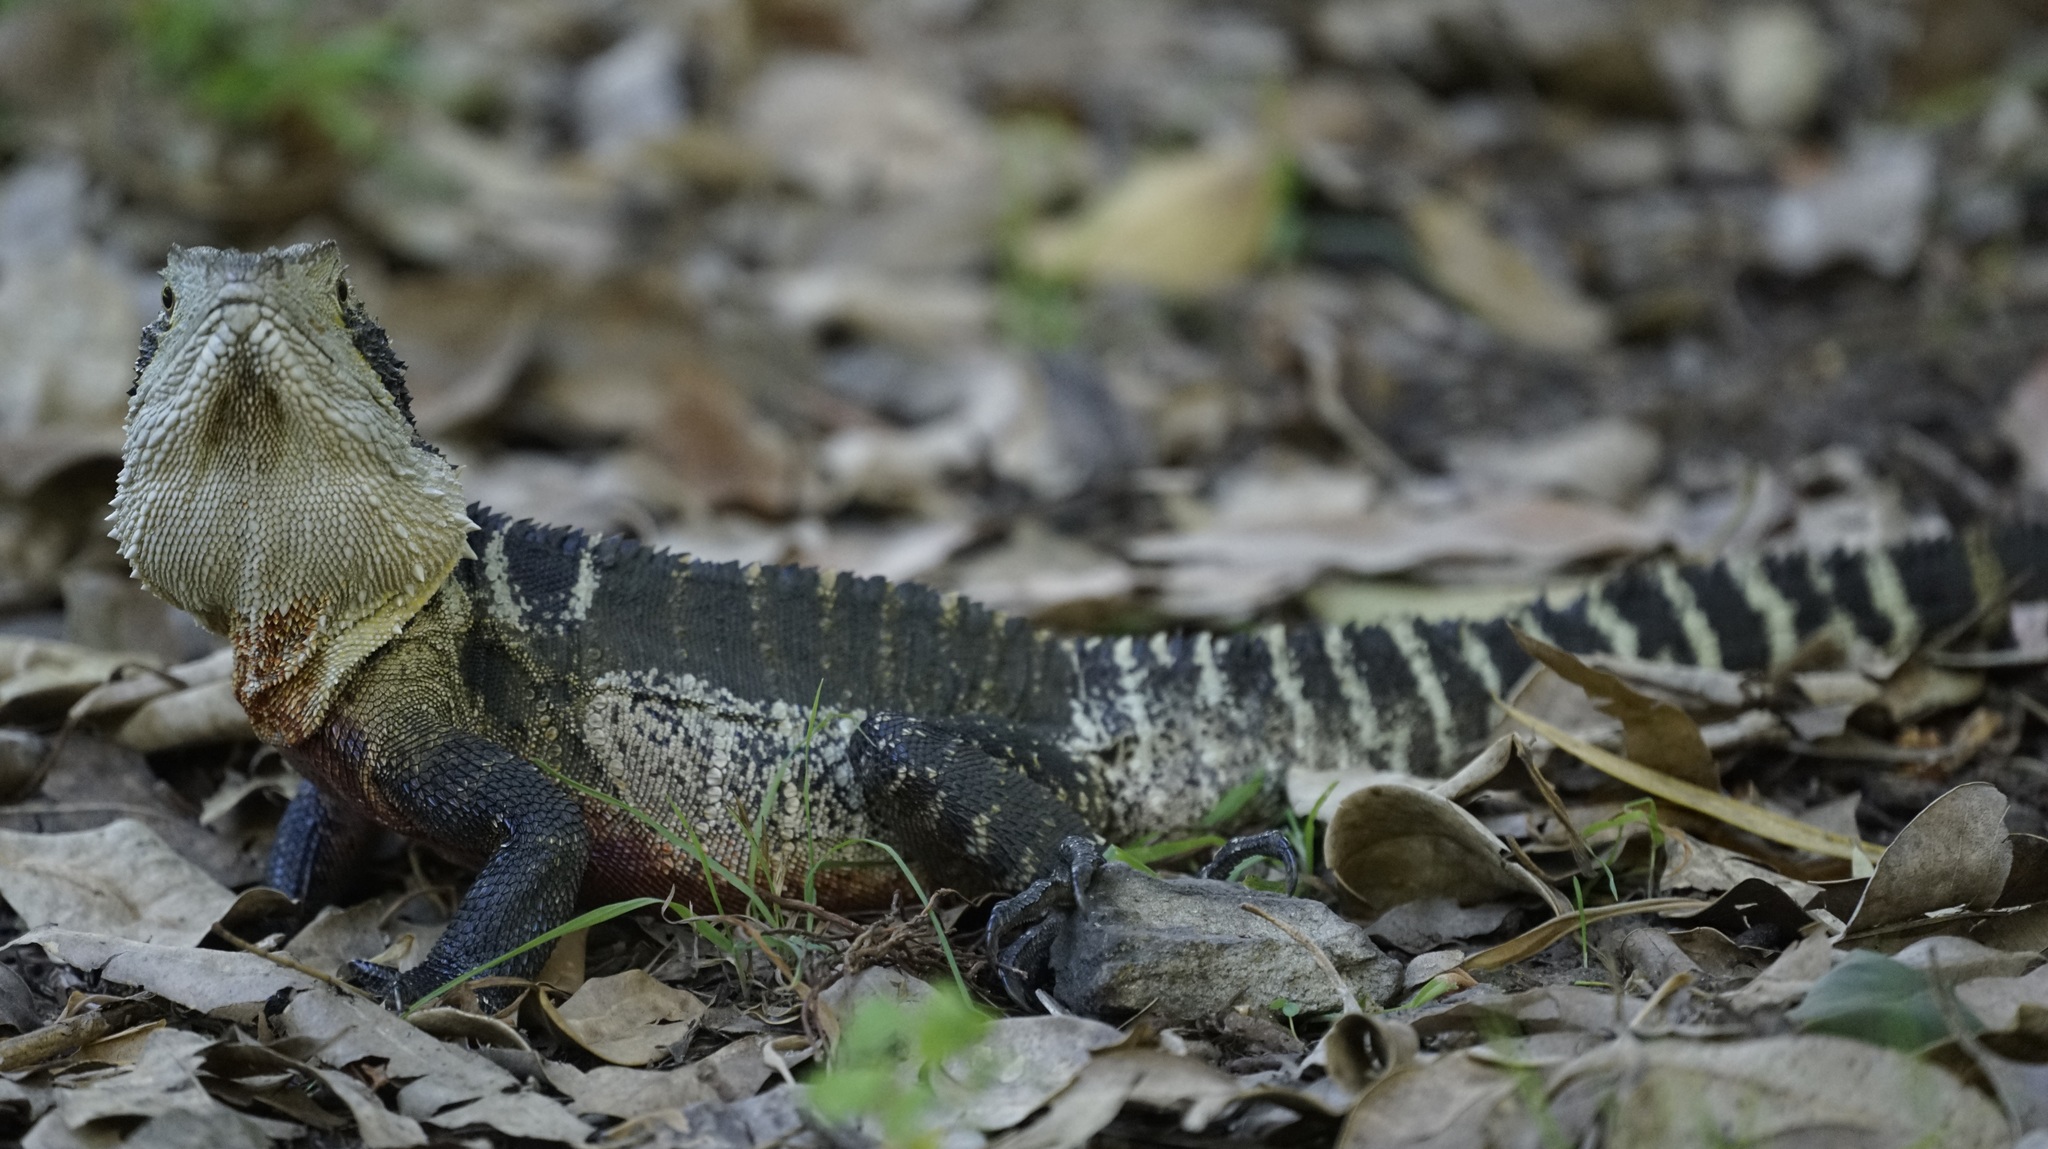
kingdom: Animalia
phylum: Chordata
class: Squamata
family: Agamidae
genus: Intellagama
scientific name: Intellagama lesueurii
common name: Eastern water dragon
